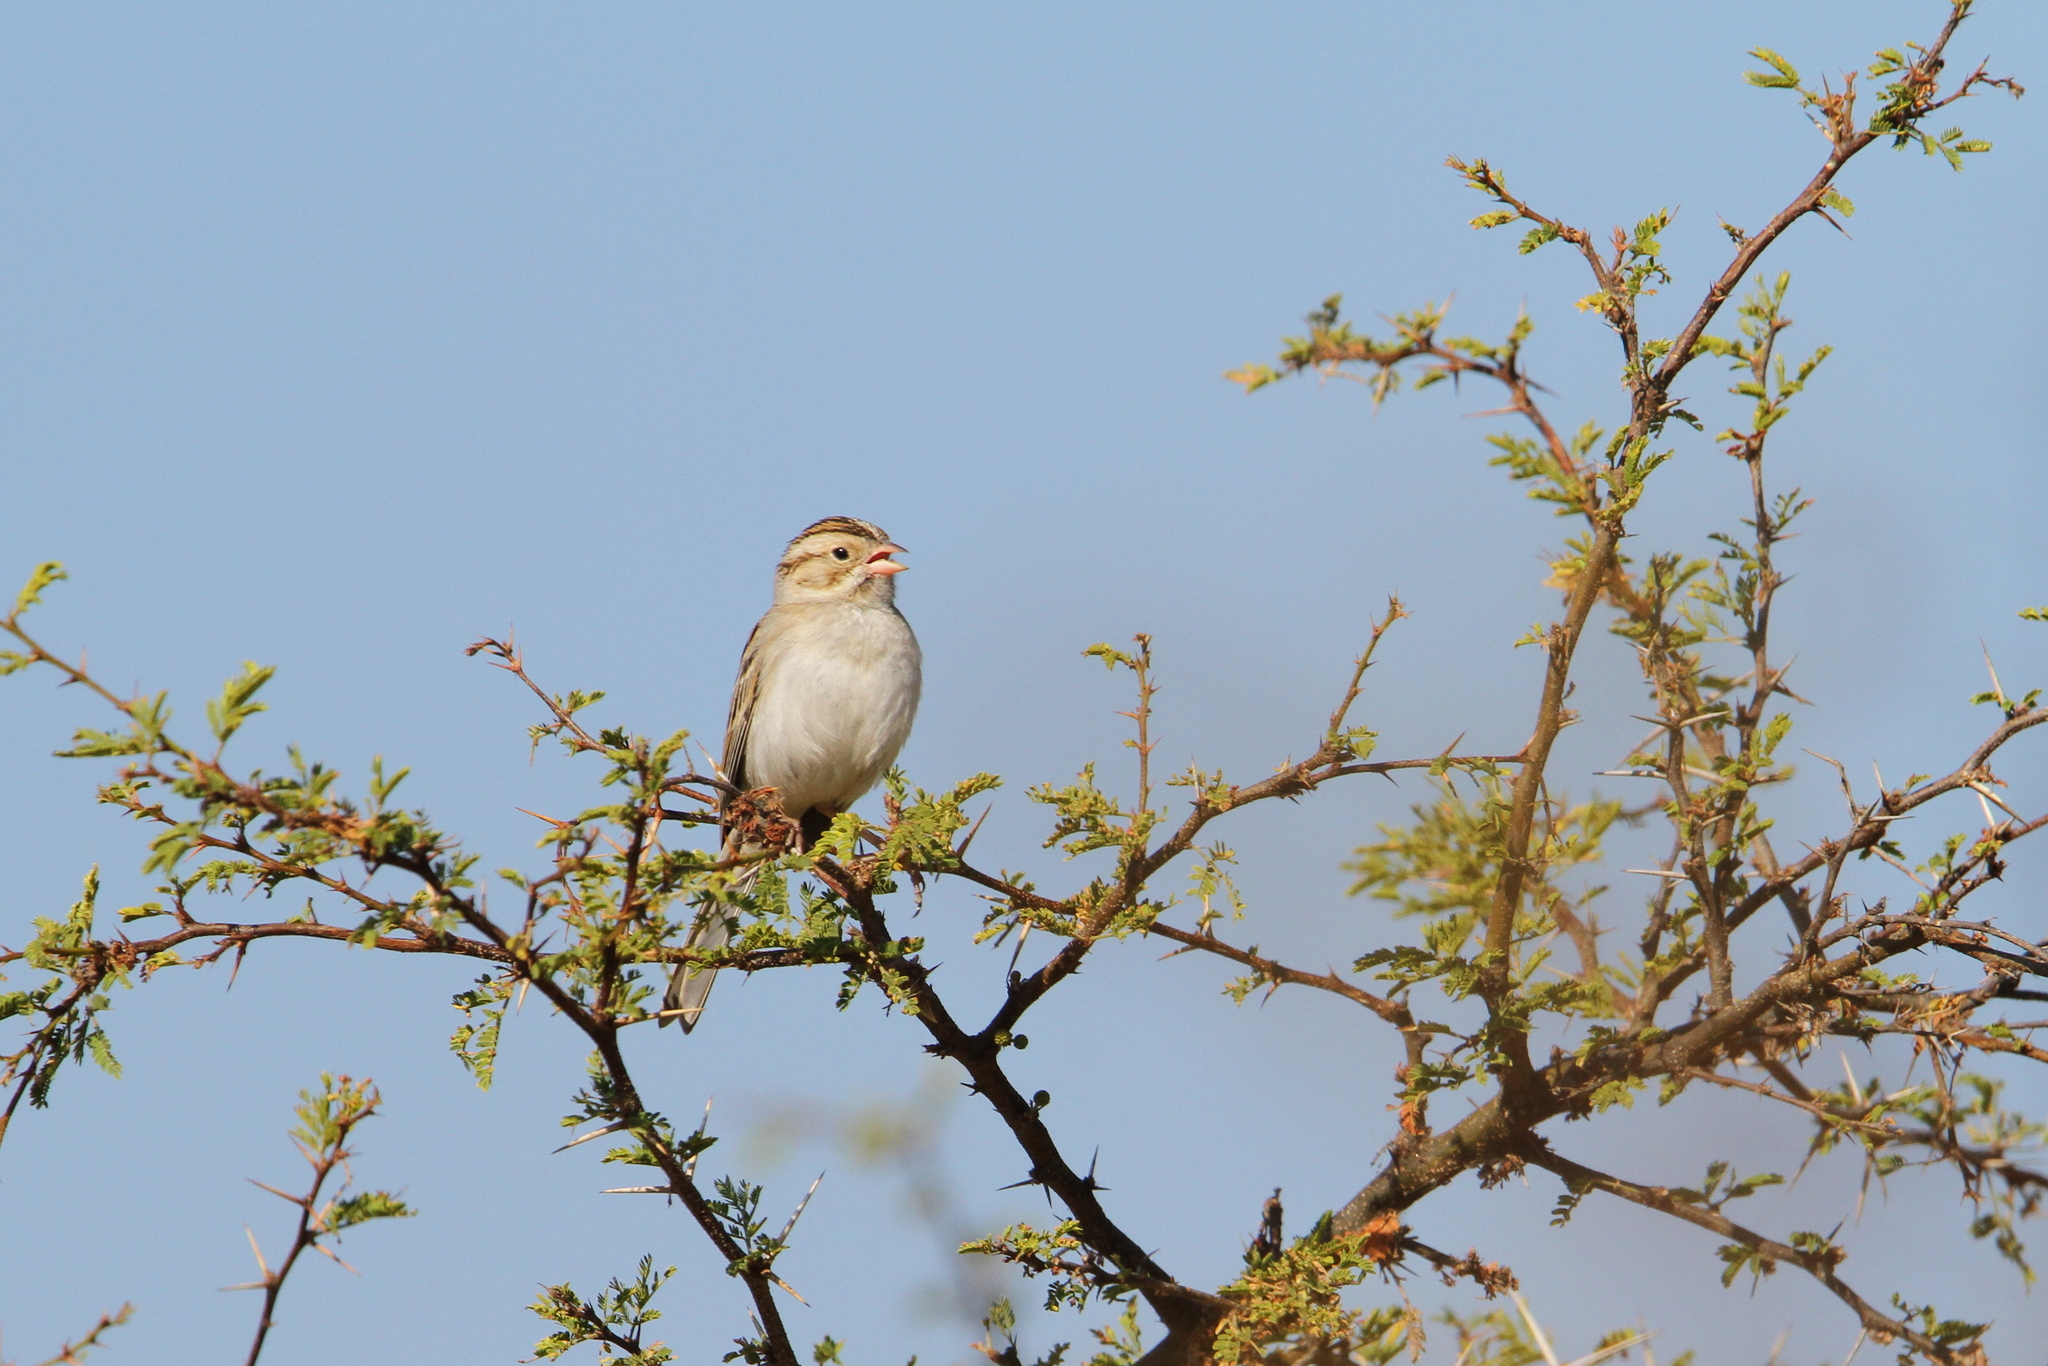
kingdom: Animalia
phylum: Chordata
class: Aves
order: Passeriformes
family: Passerellidae
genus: Spizella
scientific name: Spizella pallida
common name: Clay-colored sparrow
